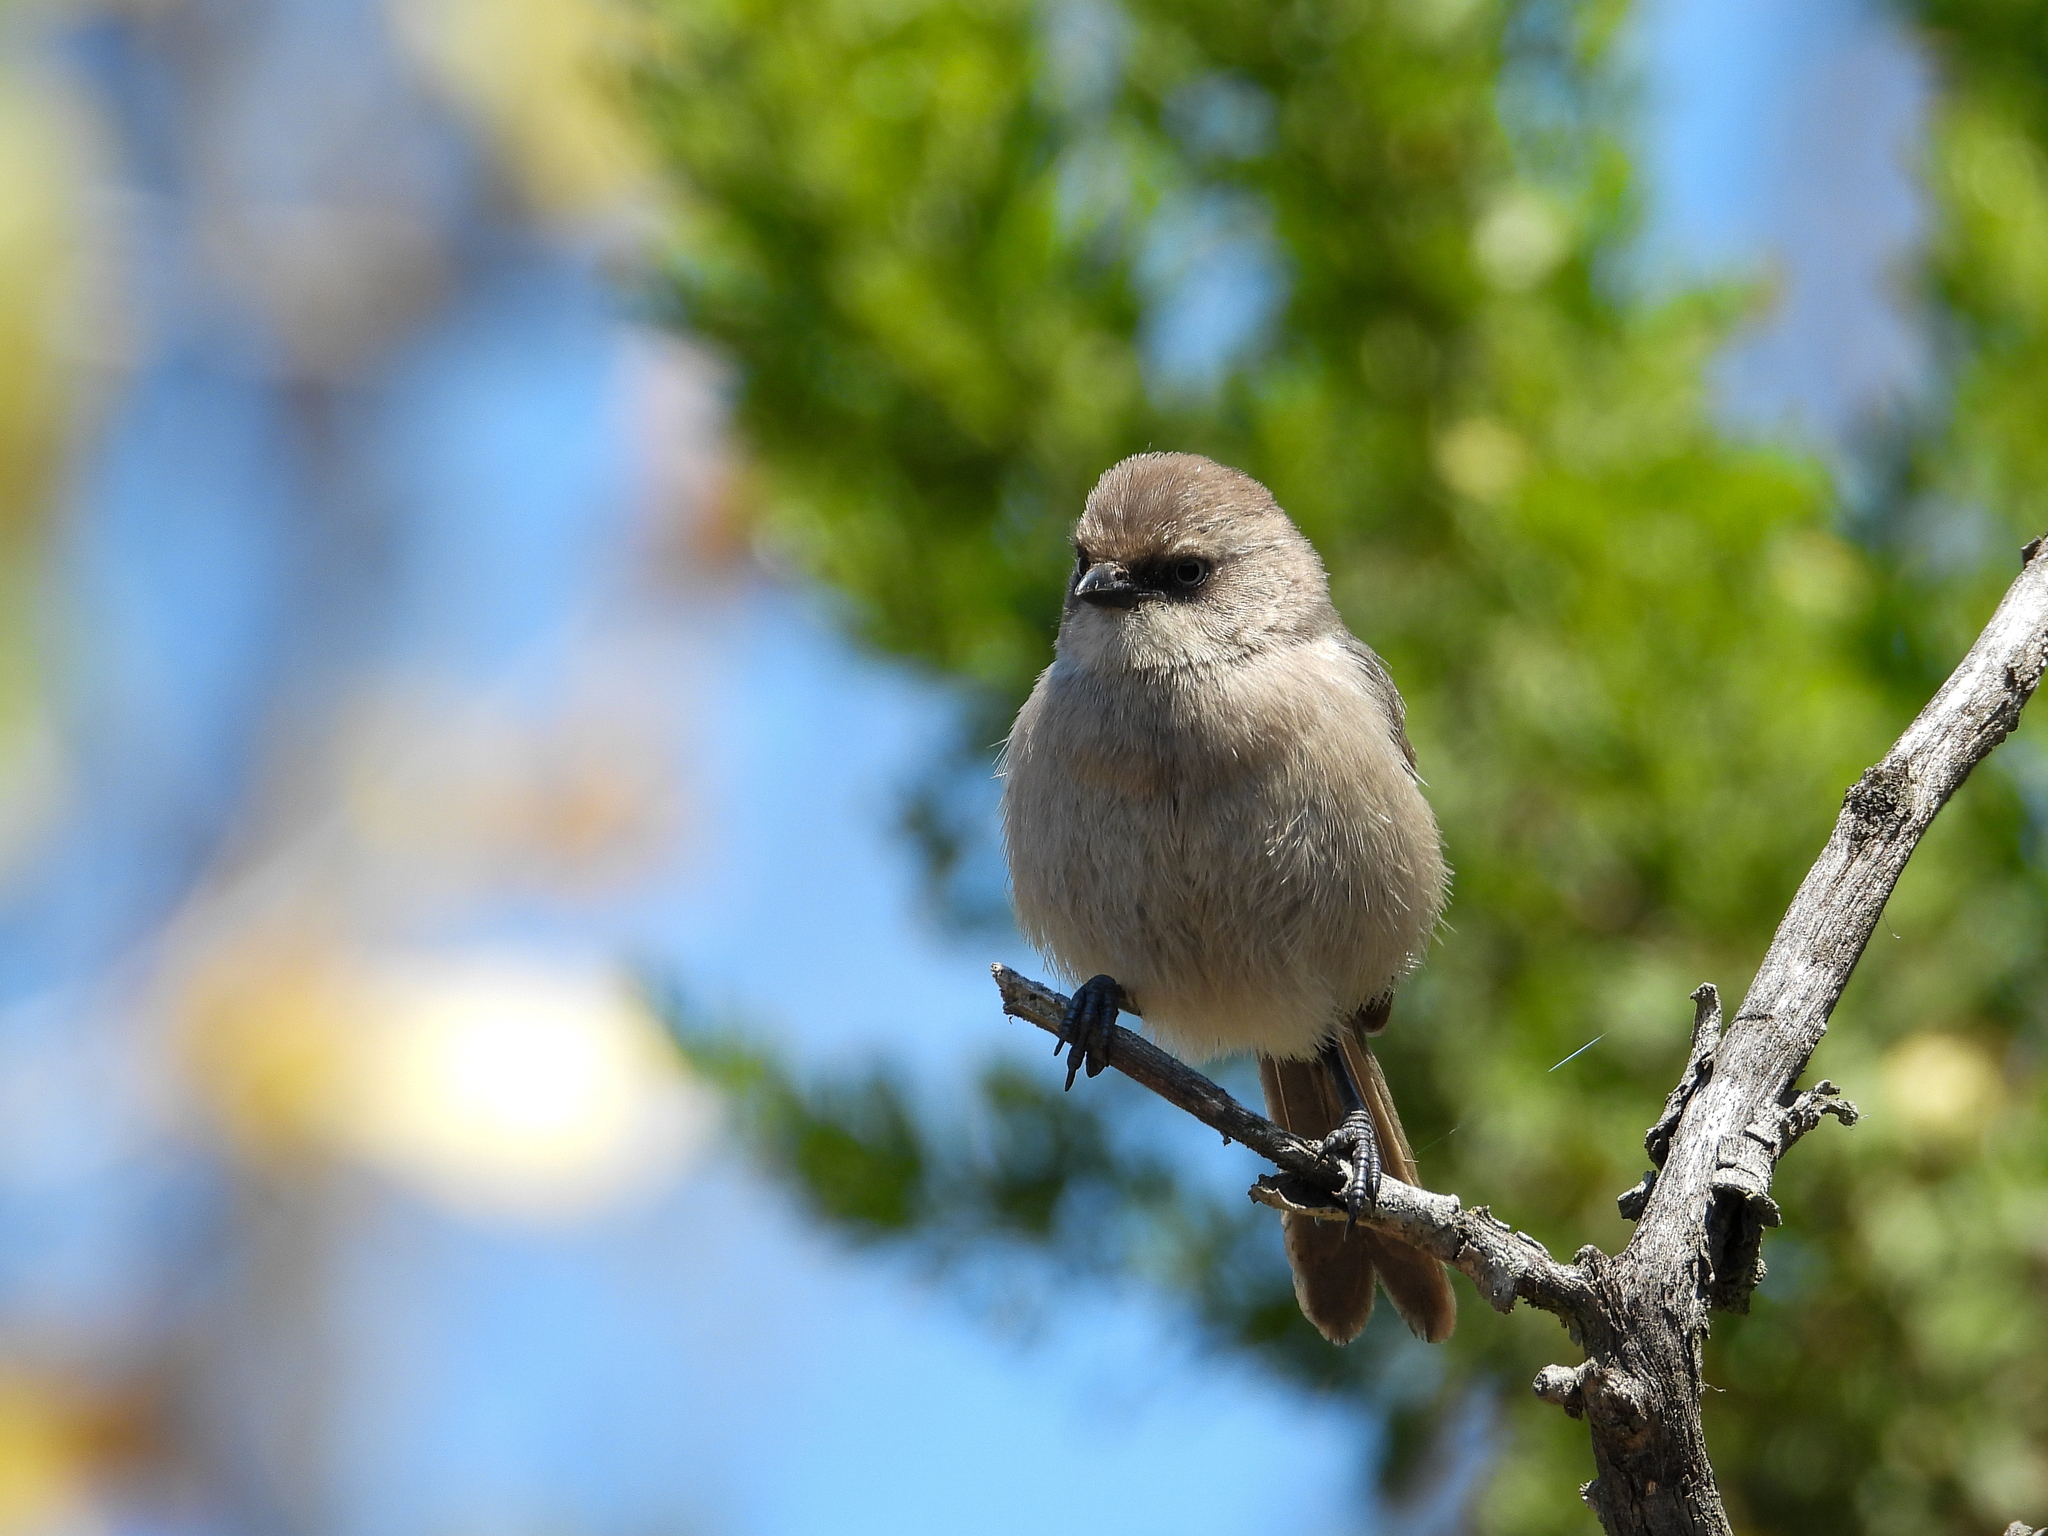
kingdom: Animalia
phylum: Chordata
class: Aves
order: Passeriformes
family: Aegithalidae
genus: Psaltriparus
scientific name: Psaltriparus minimus
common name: American bushtit
